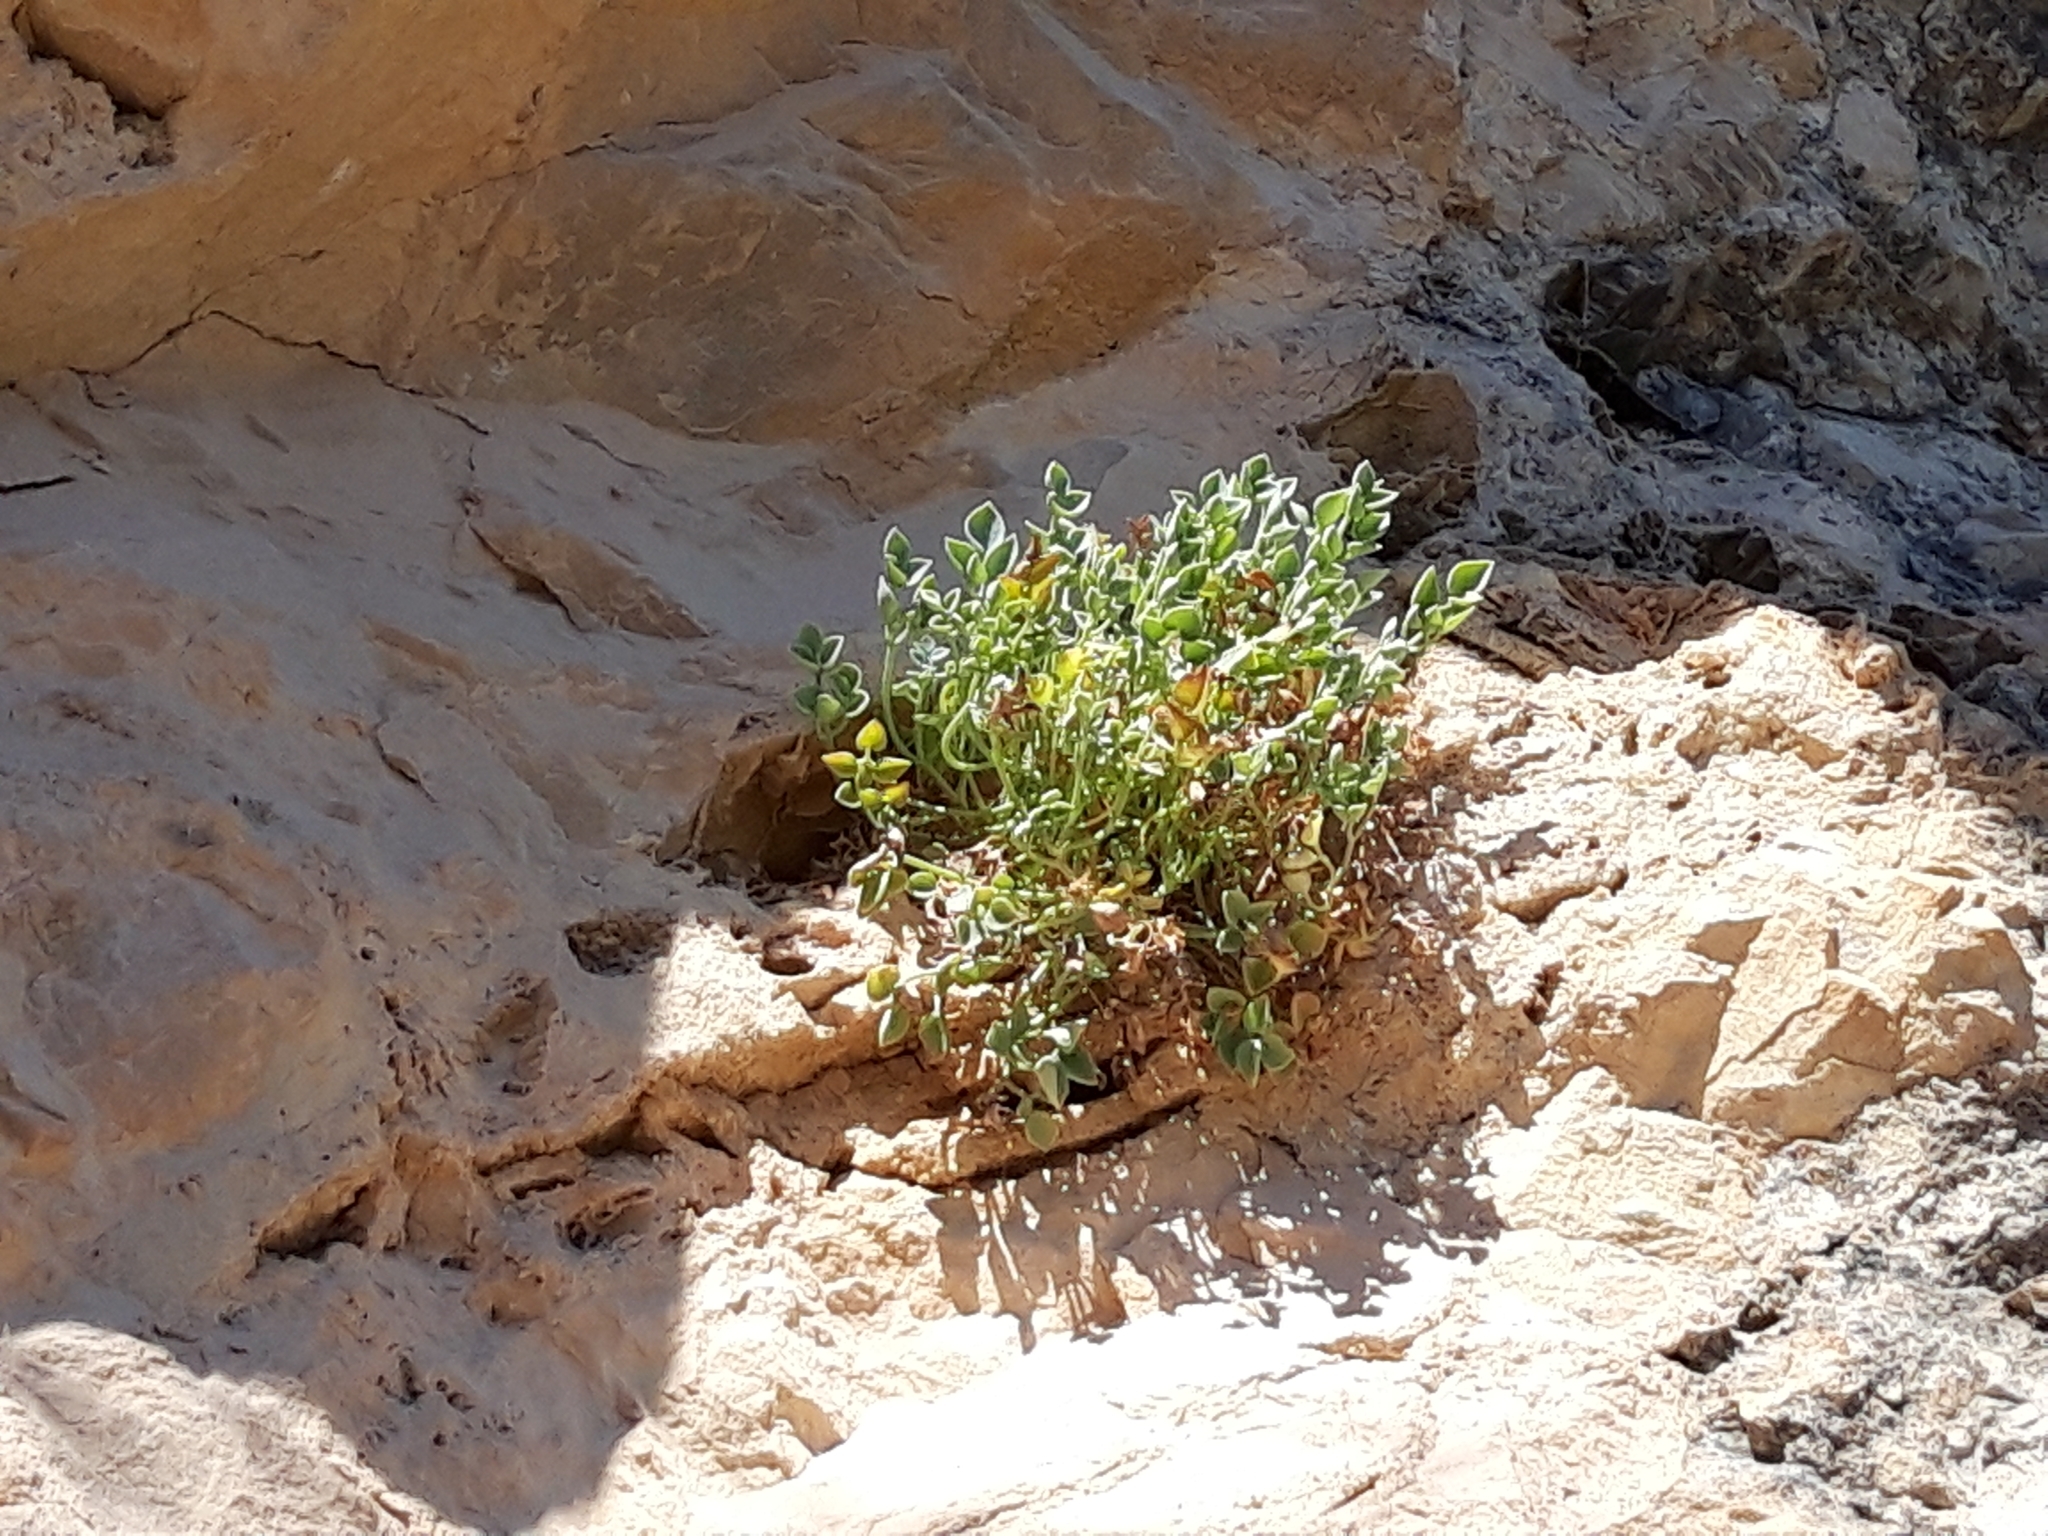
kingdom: Plantae
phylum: Tracheophyta
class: Magnoliopsida
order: Ranunculales
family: Papaveraceae
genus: Sarcocapnos
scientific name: Sarcocapnos enneaphylla
